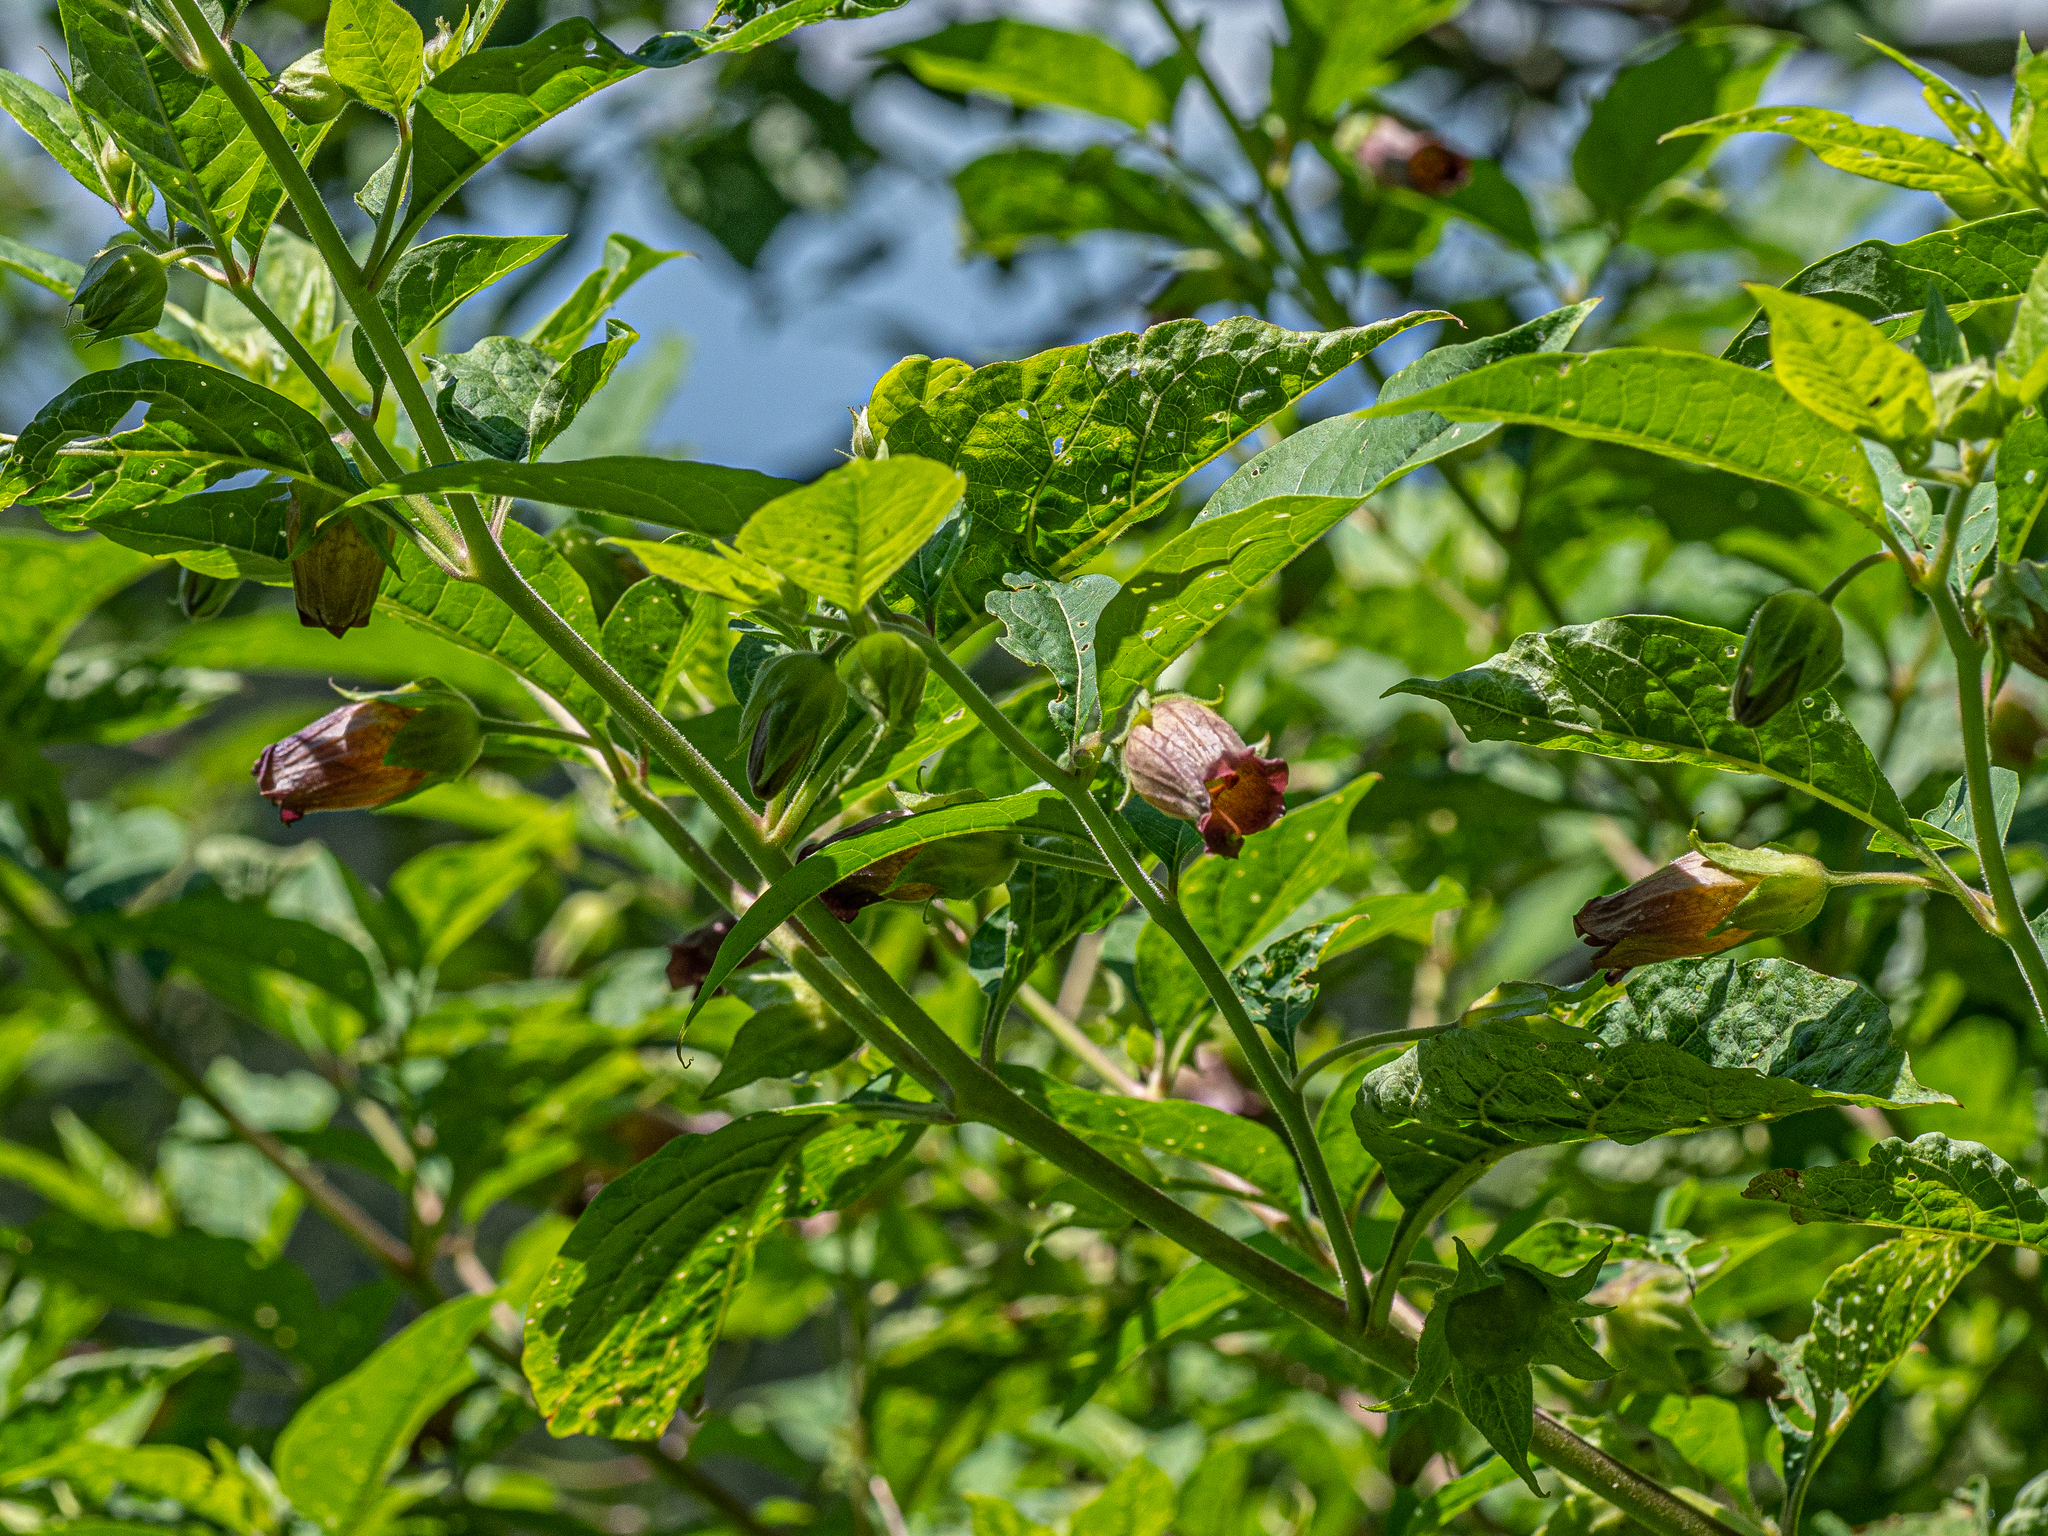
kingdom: Plantae
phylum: Tracheophyta
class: Magnoliopsida
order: Solanales
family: Solanaceae
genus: Atropa
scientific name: Atropa belladonna
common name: Deadly nightshade
